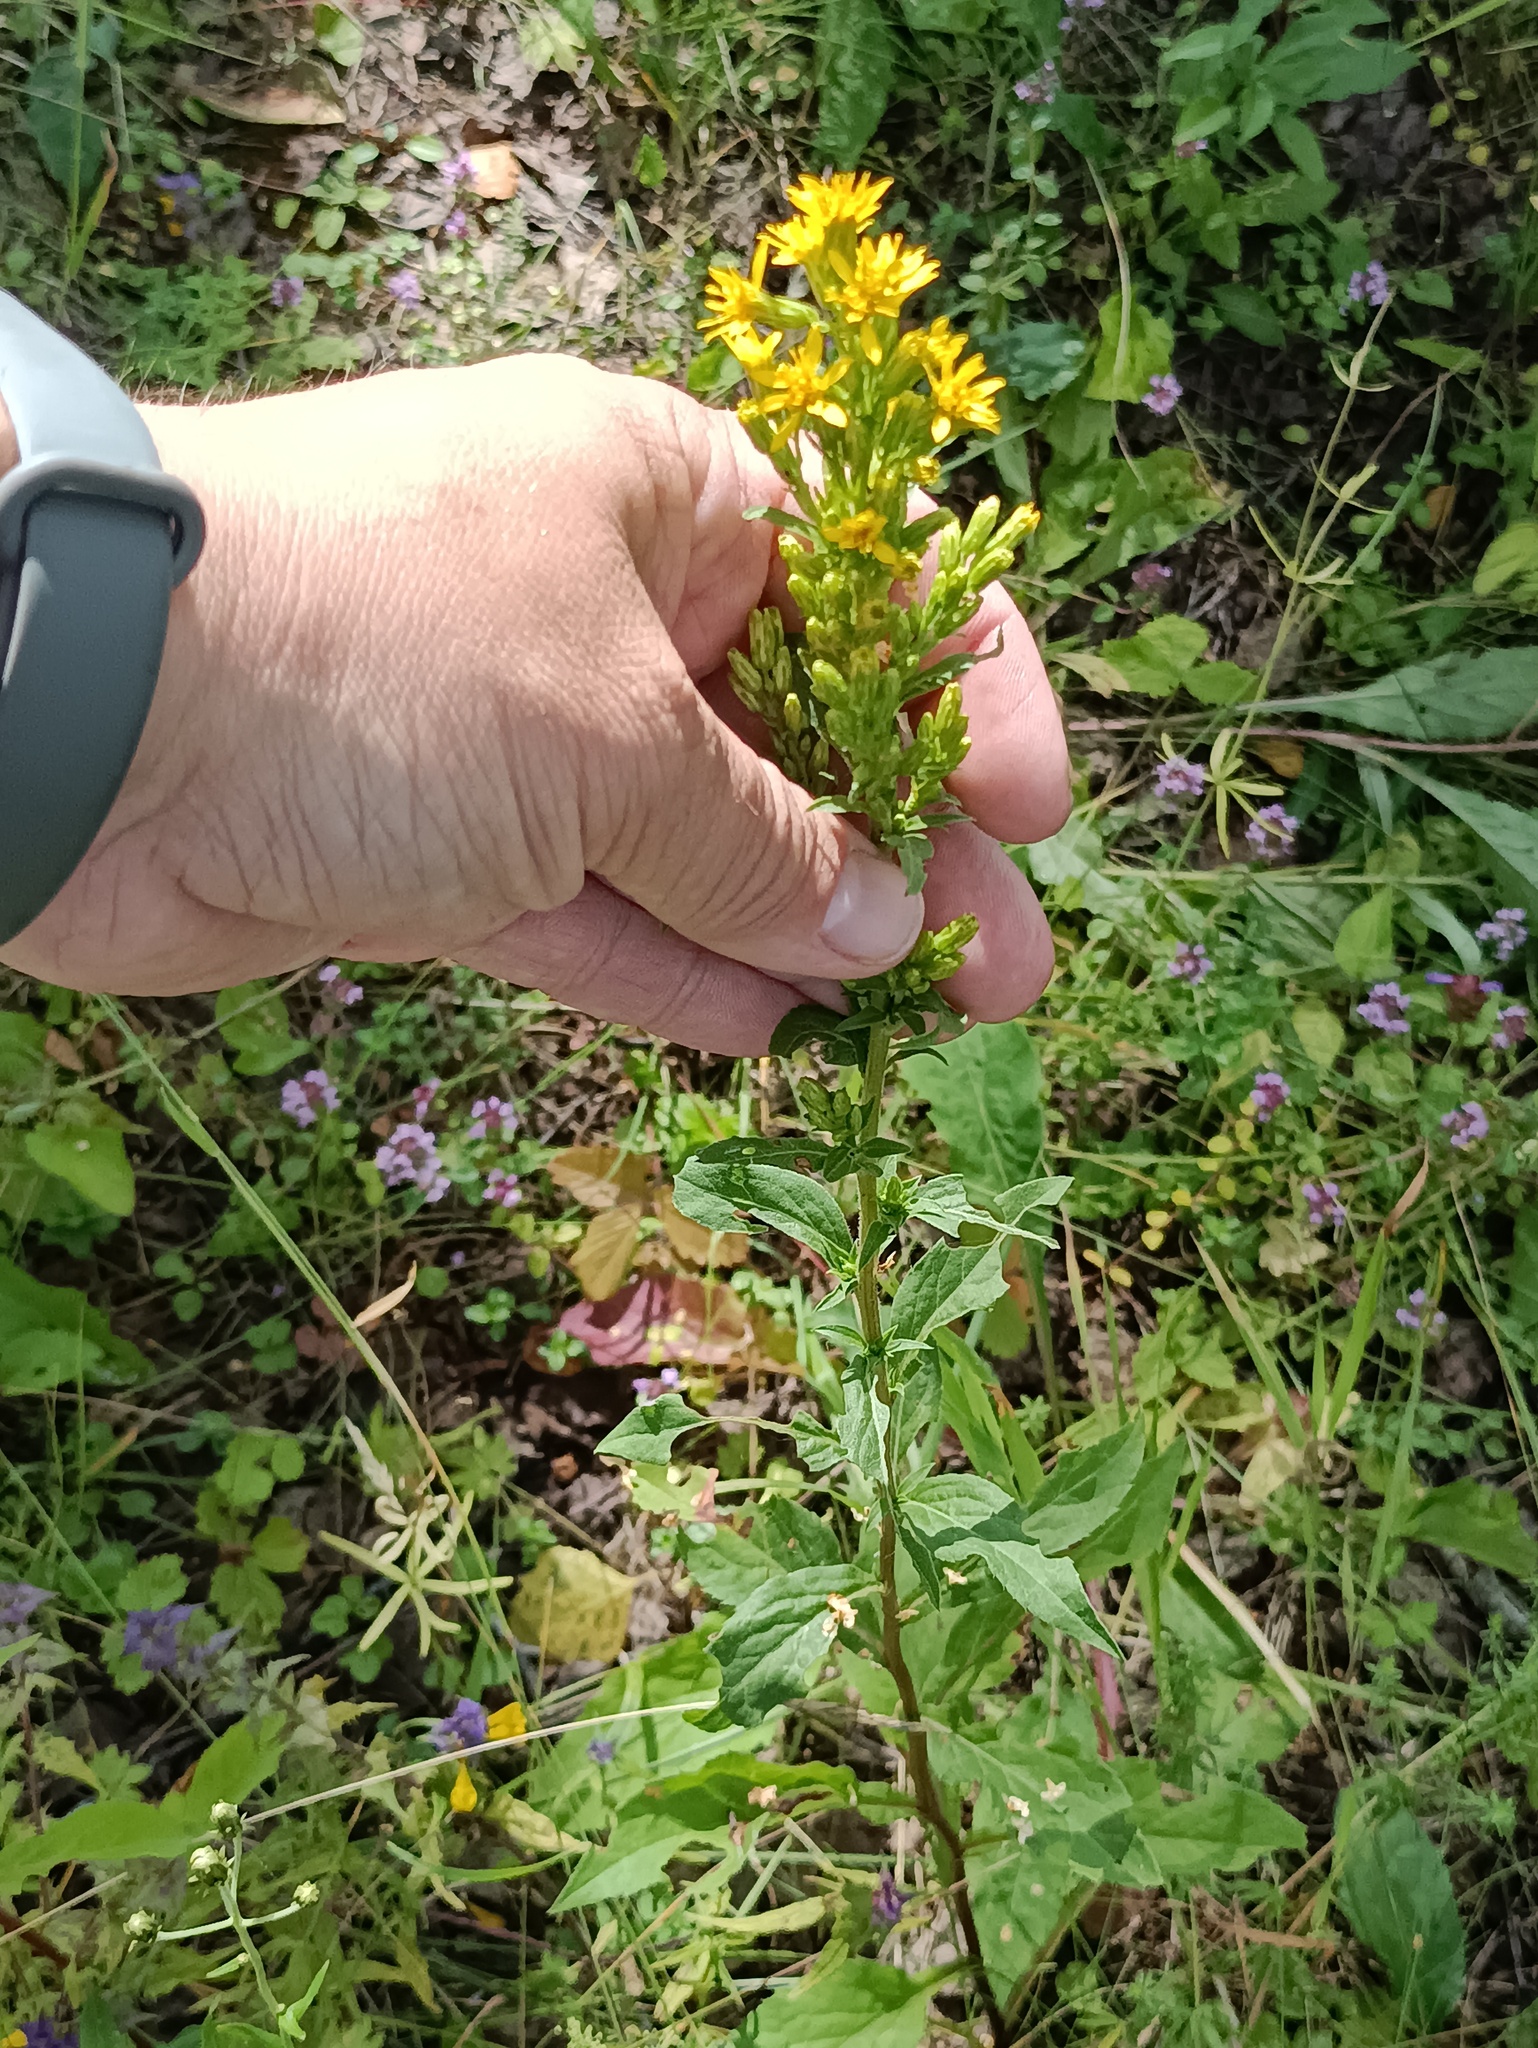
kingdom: Plantae
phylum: Tracheophyta
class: Magnoliopsida
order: Asterales
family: Asteraceae
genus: Solidago
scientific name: Solidago virgaurea
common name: Goldenrod
